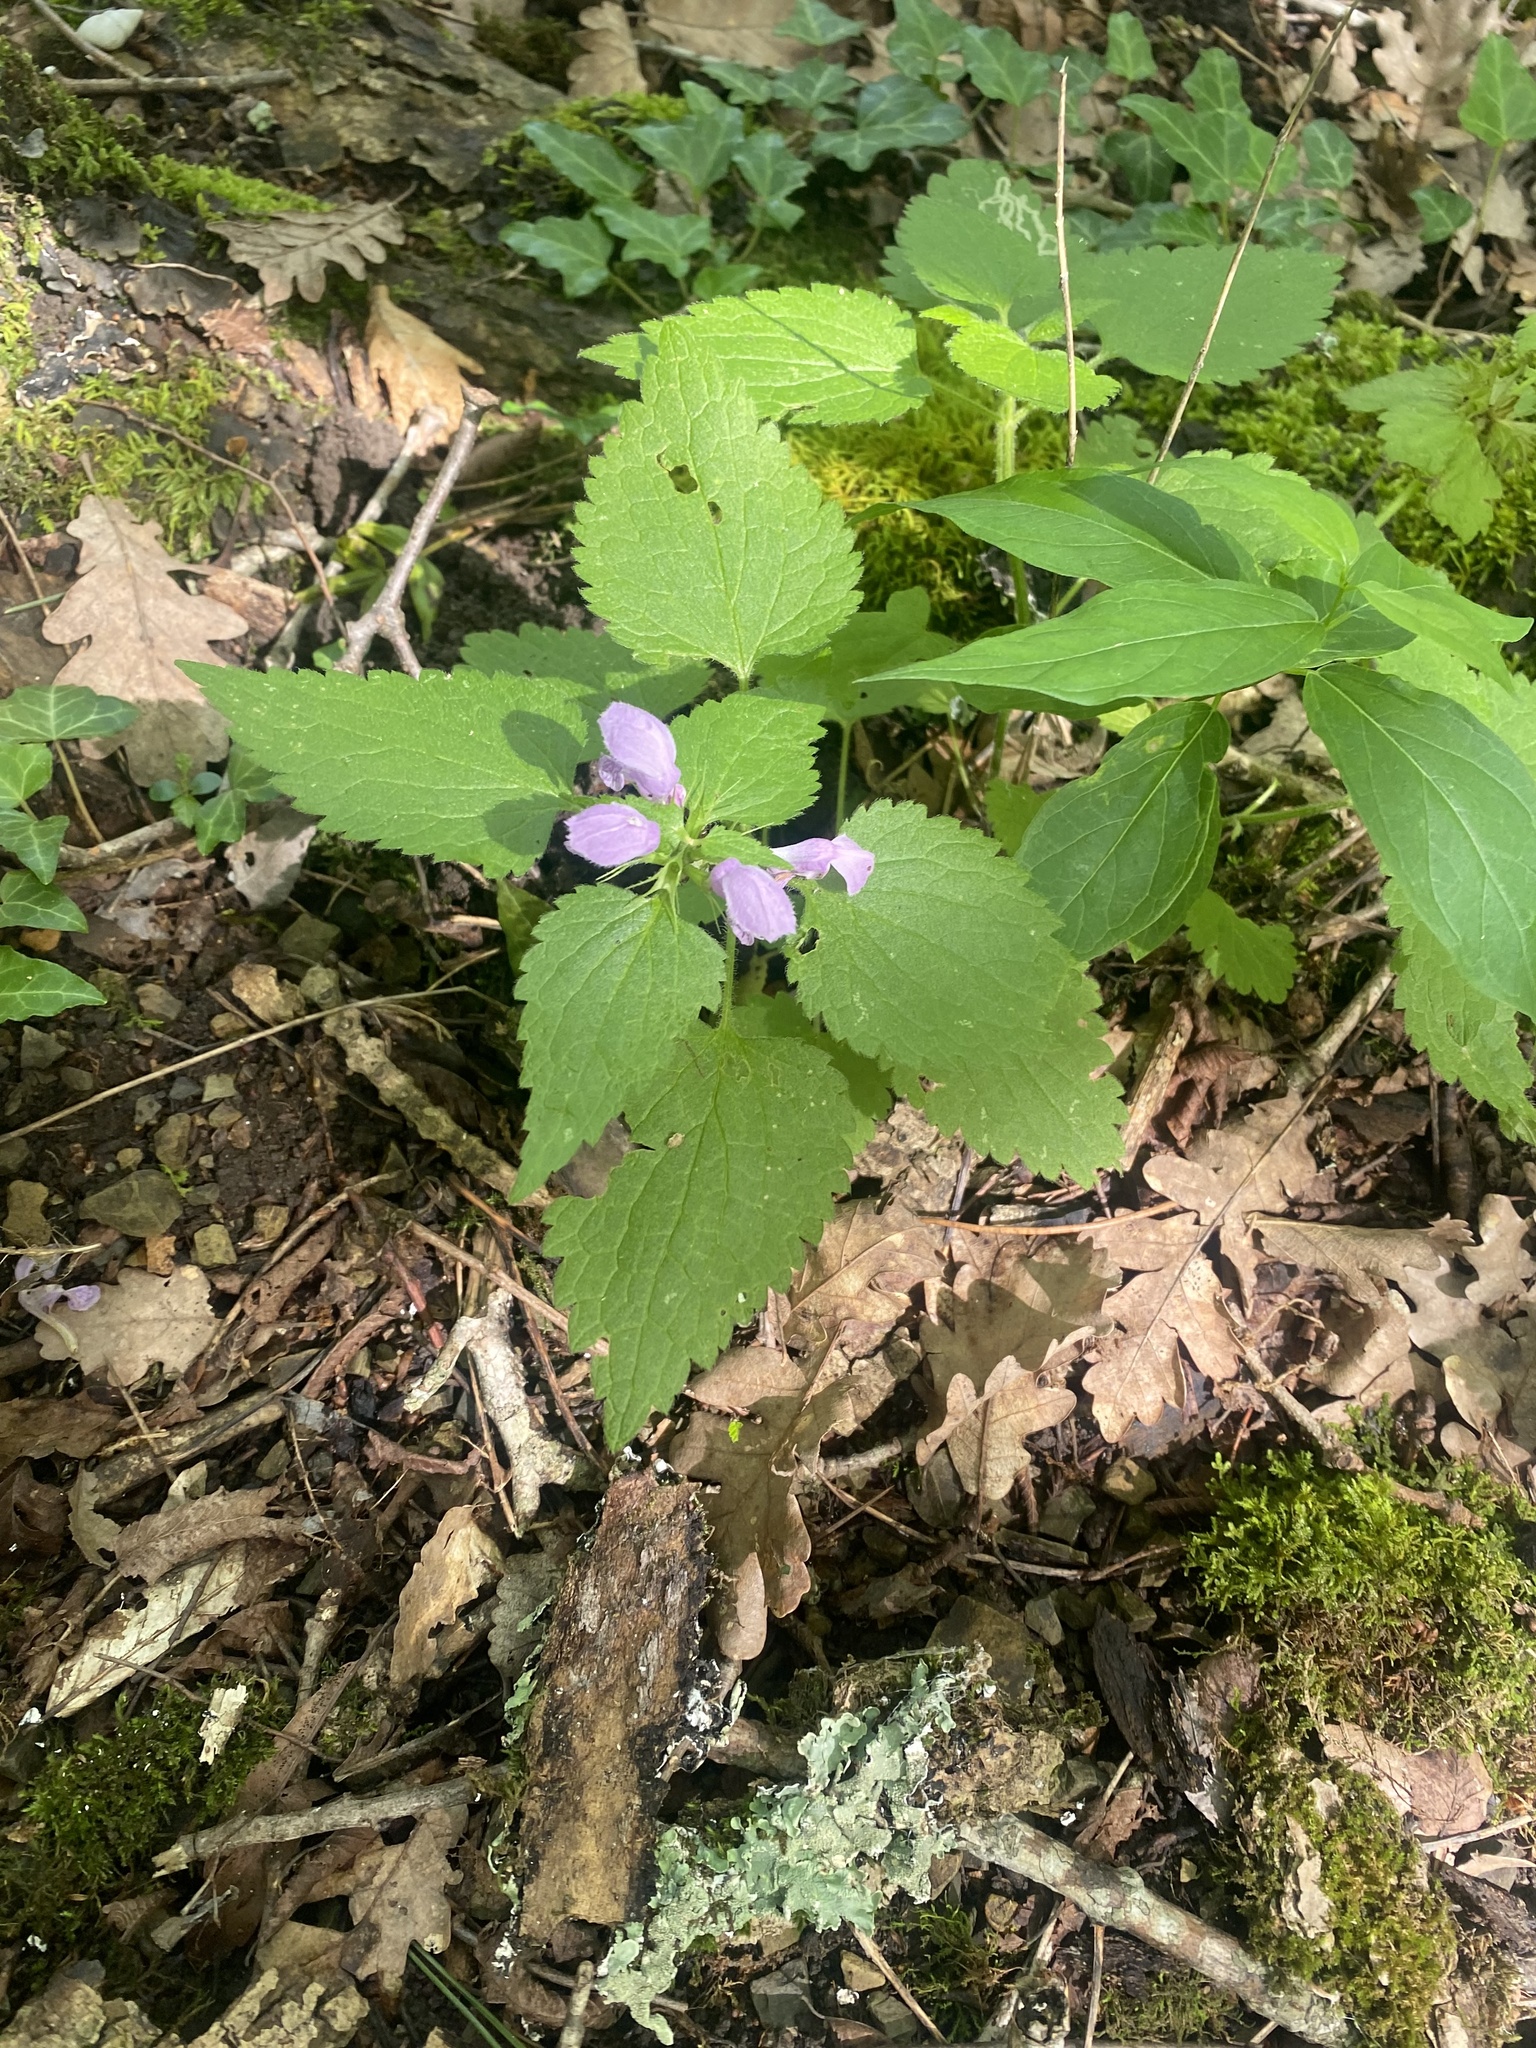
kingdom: Plantae
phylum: Tracheophyta
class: Magnoliopsida
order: Lamiales
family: Lamiaceae
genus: Lamium
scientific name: Lamium maculatum
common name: Spotted dead-nettle
